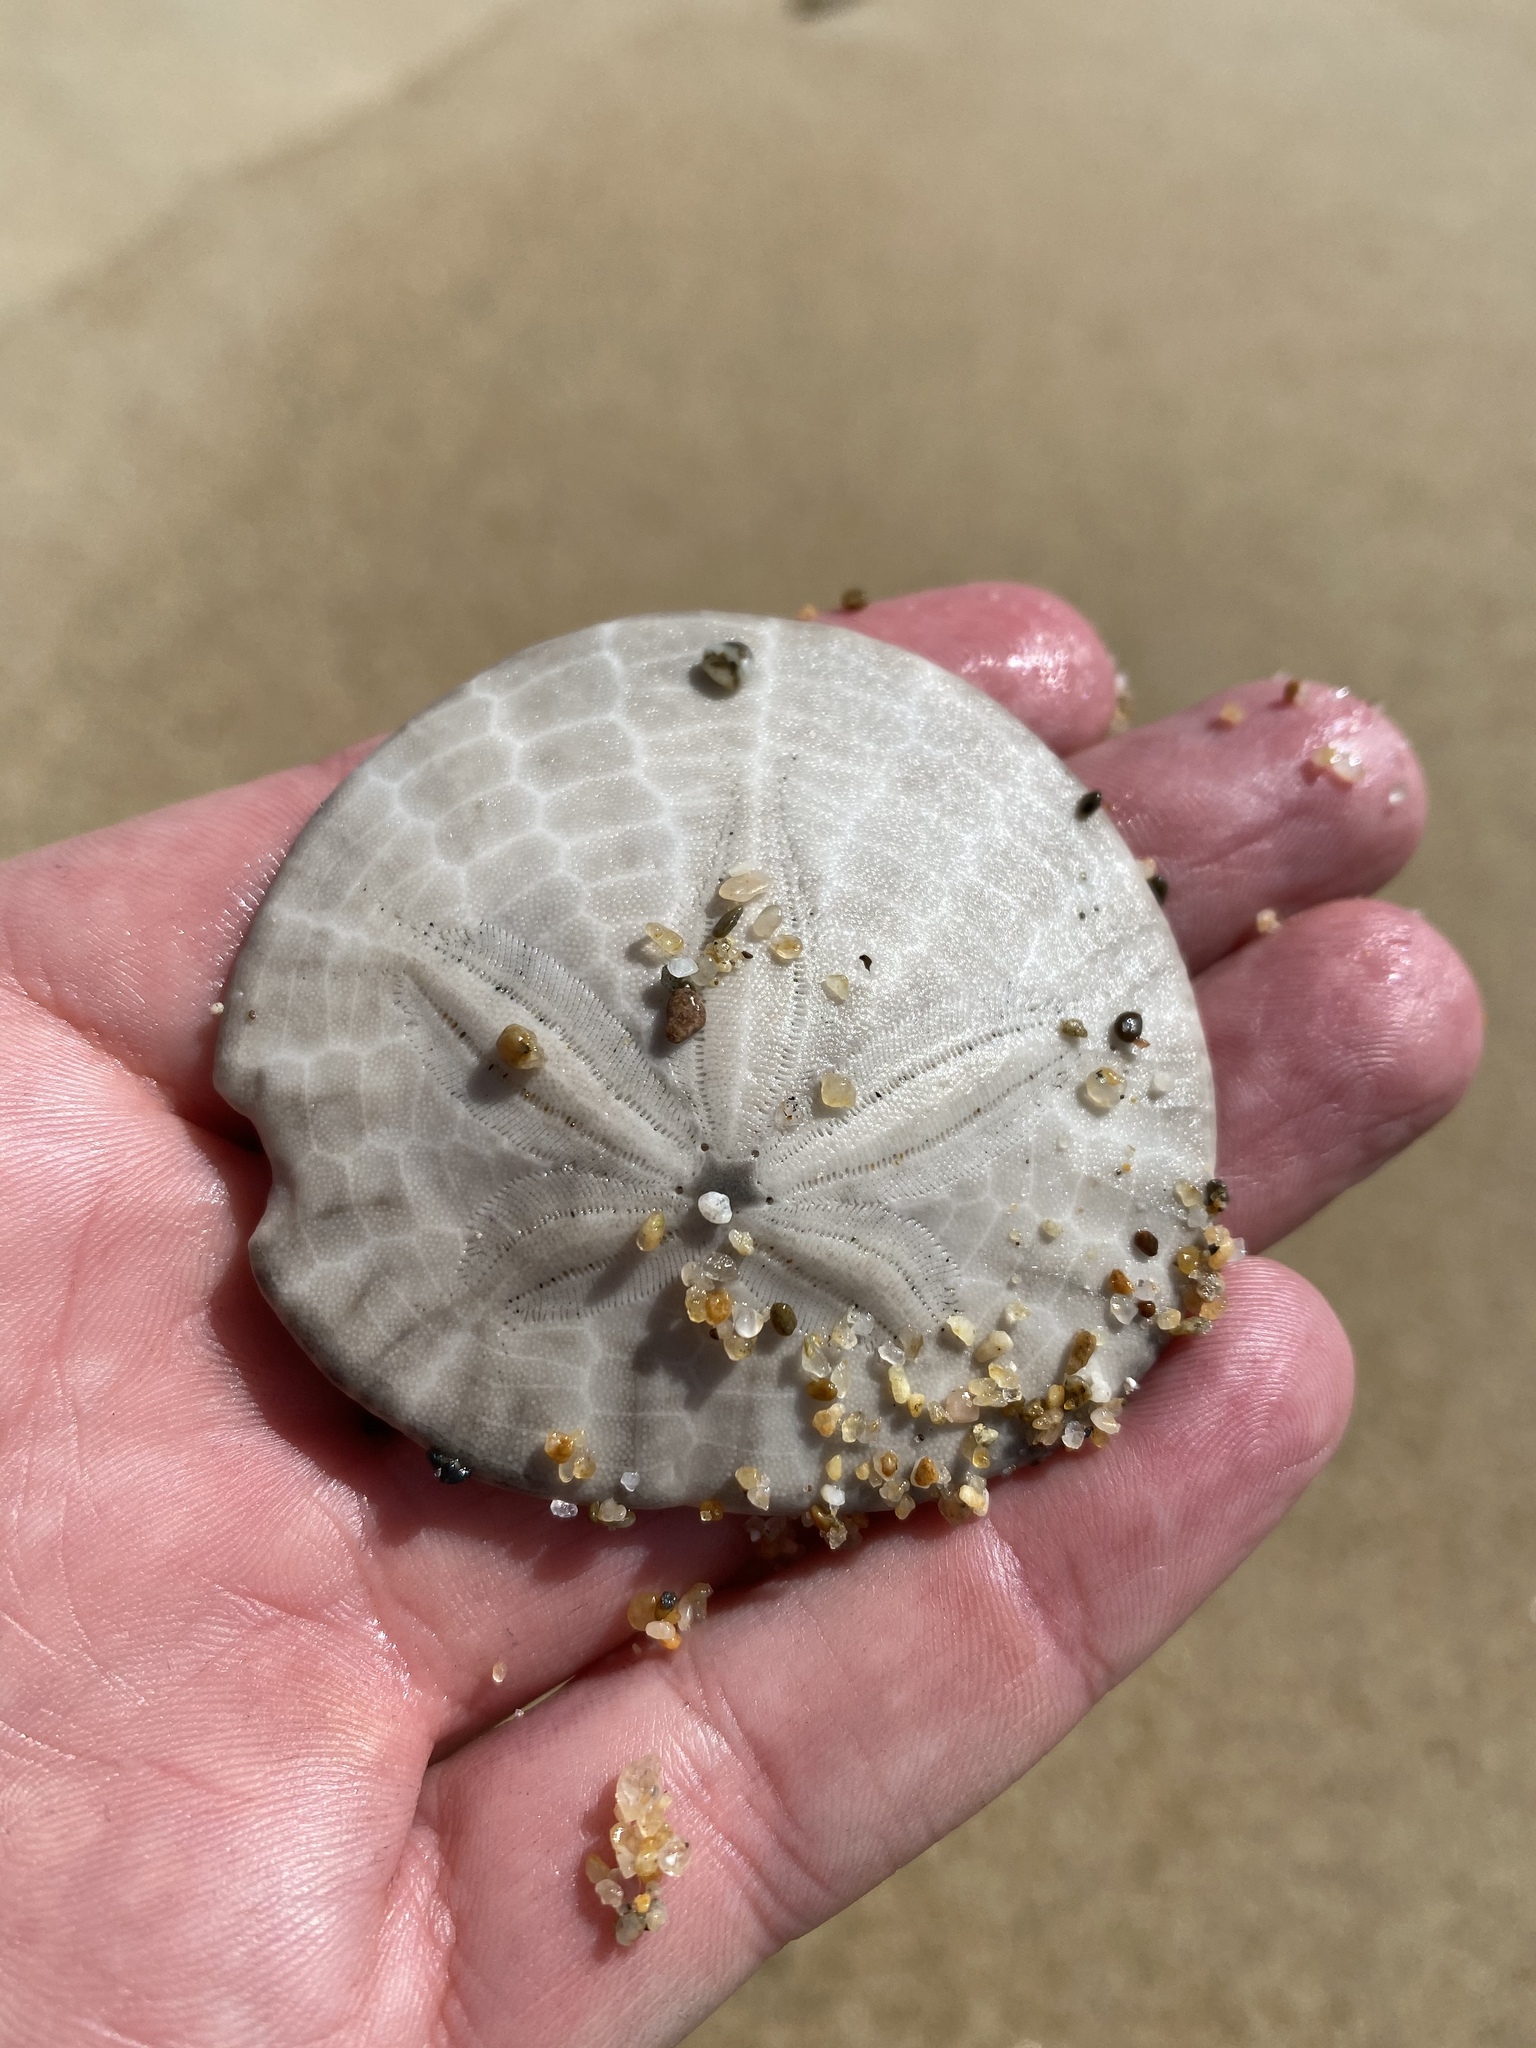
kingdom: Animalia
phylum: Echinodermata
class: Echinoidea
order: Echinolampadacea
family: Dendrasteridae
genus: Dendraster
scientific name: Dendraster excentricus
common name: Eccentric sand dollar sea urchin
